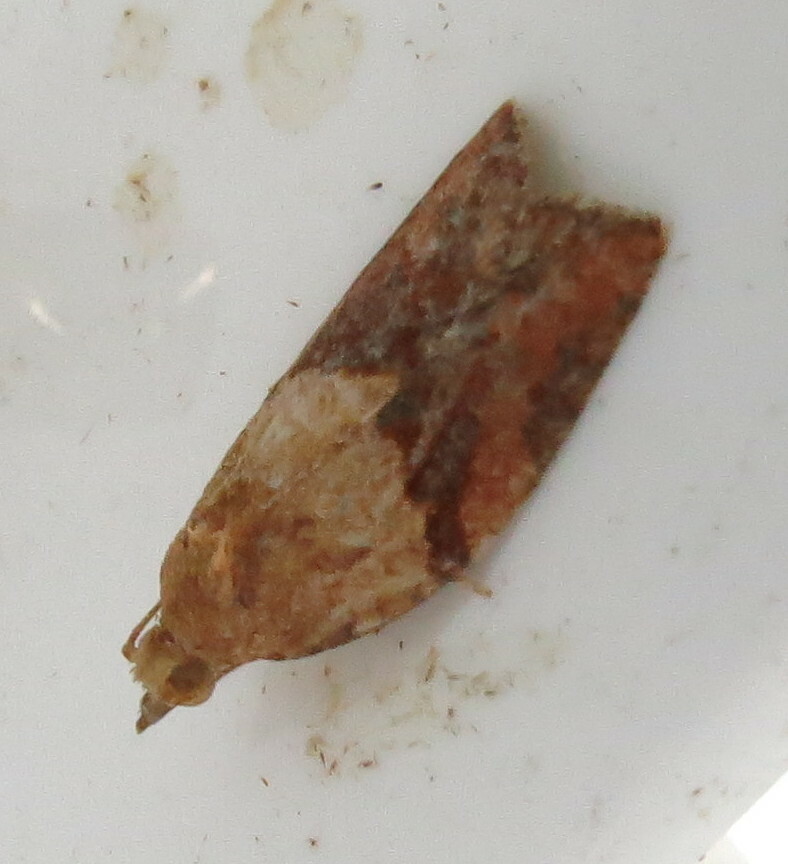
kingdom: Animalia
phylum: Arthropoda
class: Insecta
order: Lepidoptera
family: Tortricidae
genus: Epiphyas
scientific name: Epiphyas postvittana
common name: Light brown apple moth
